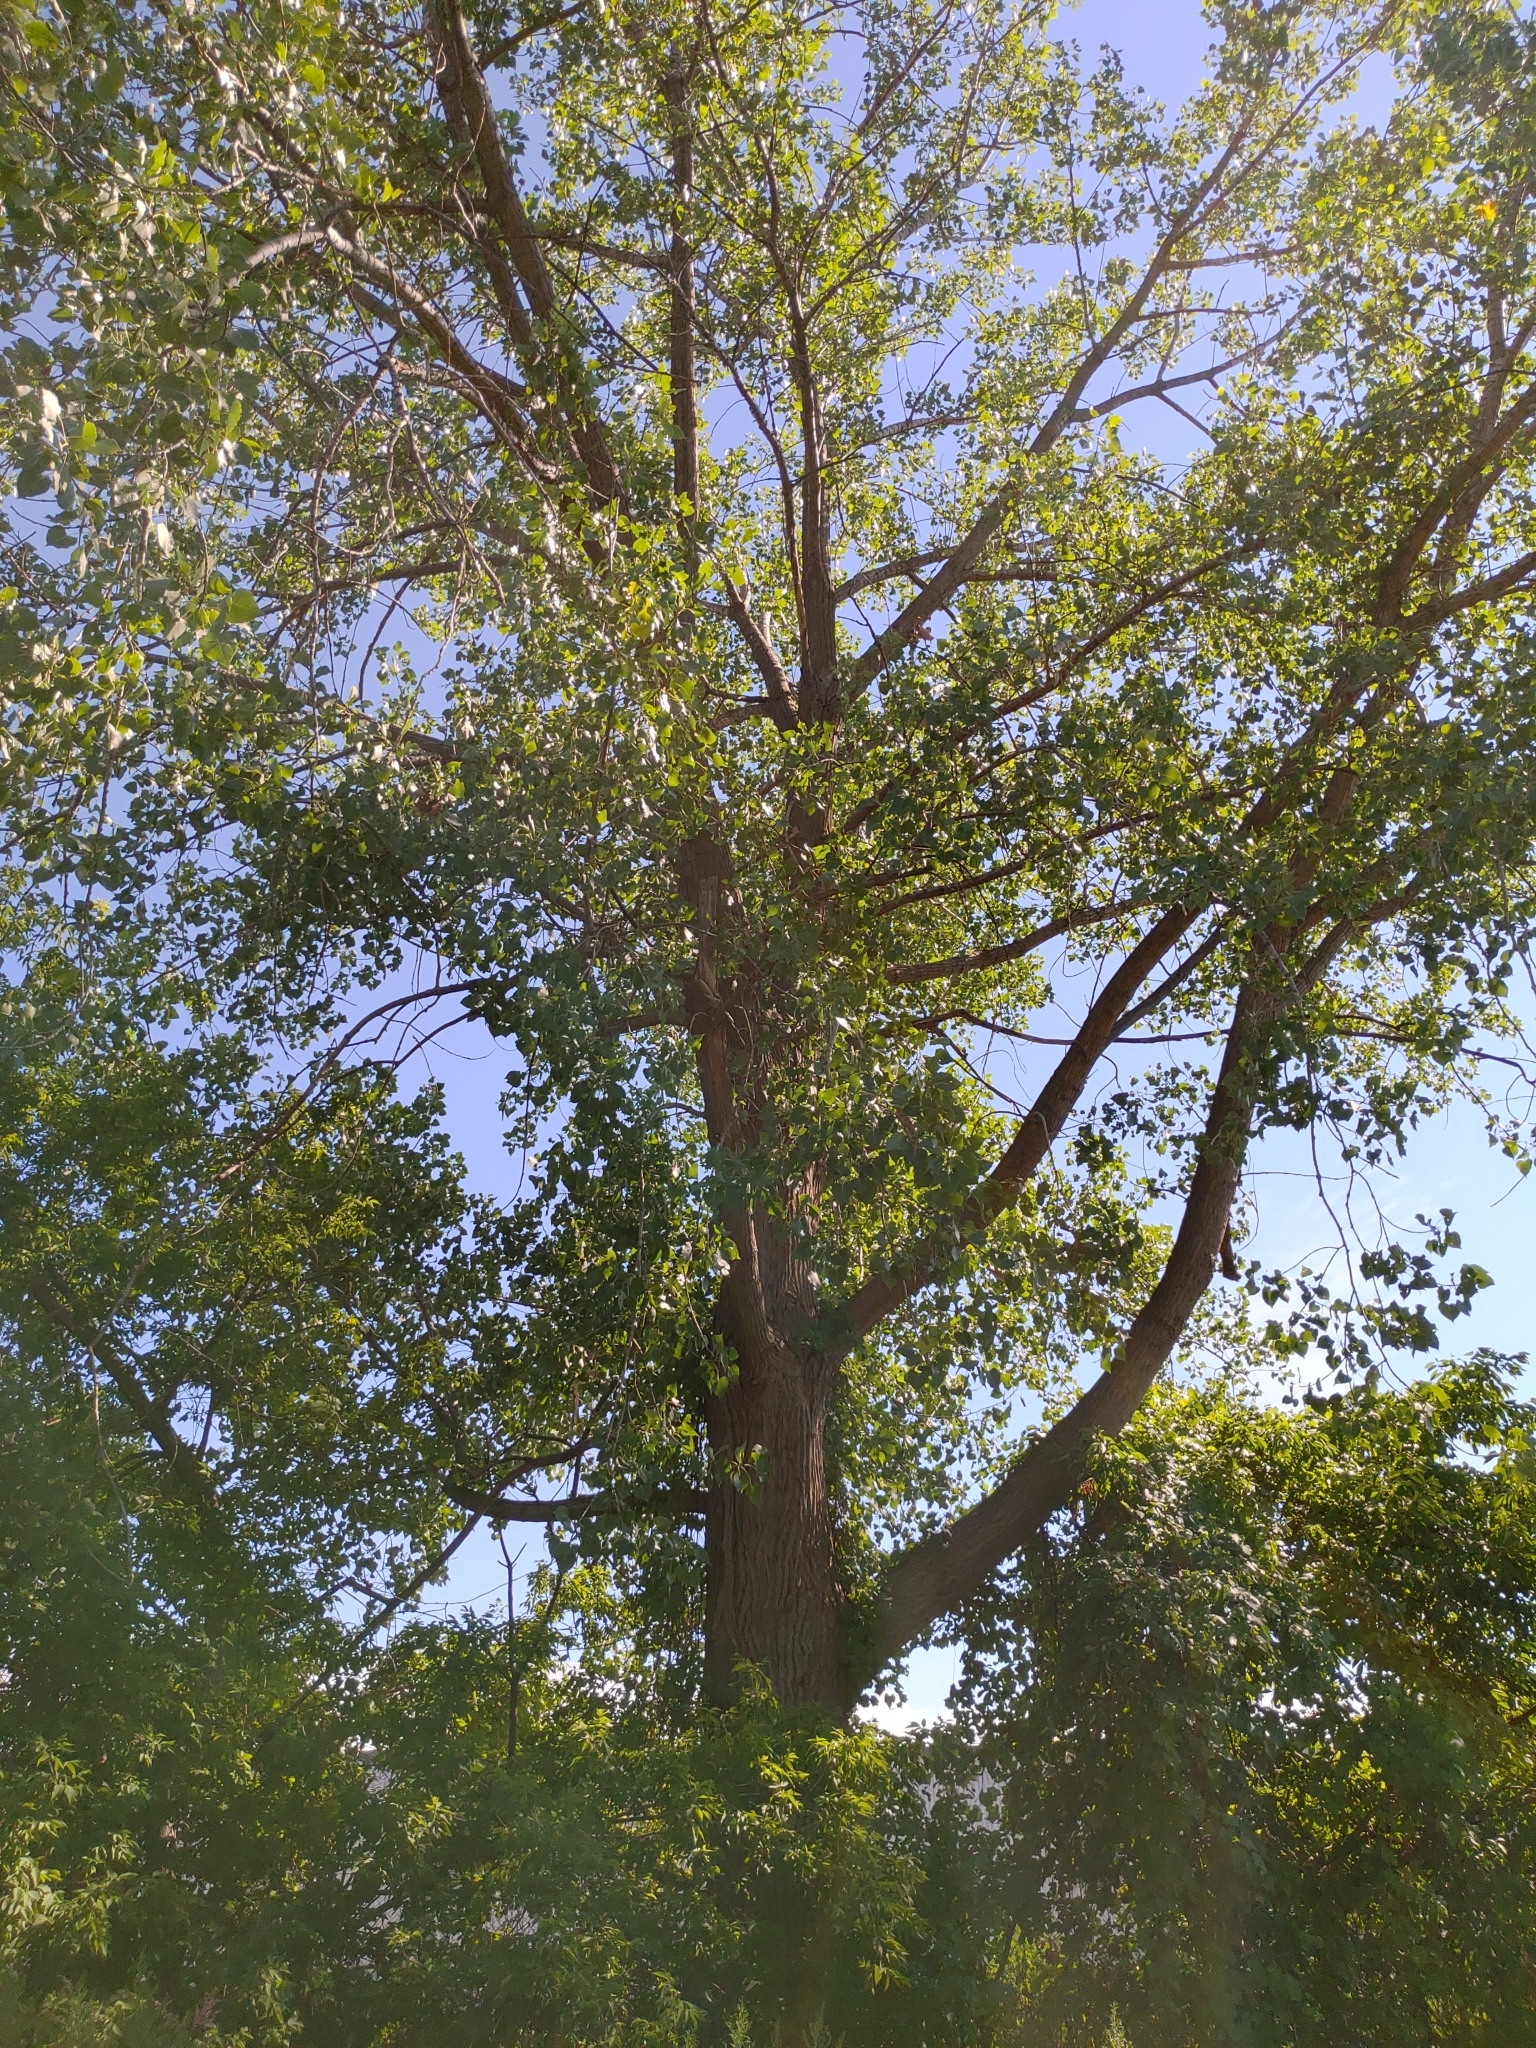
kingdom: Plantae
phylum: Tracheophyta
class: Magnoliopsida
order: Malpighiales
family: Salicaceae
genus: Populus
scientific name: Populus deltoides
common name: Eastern cottonwood
